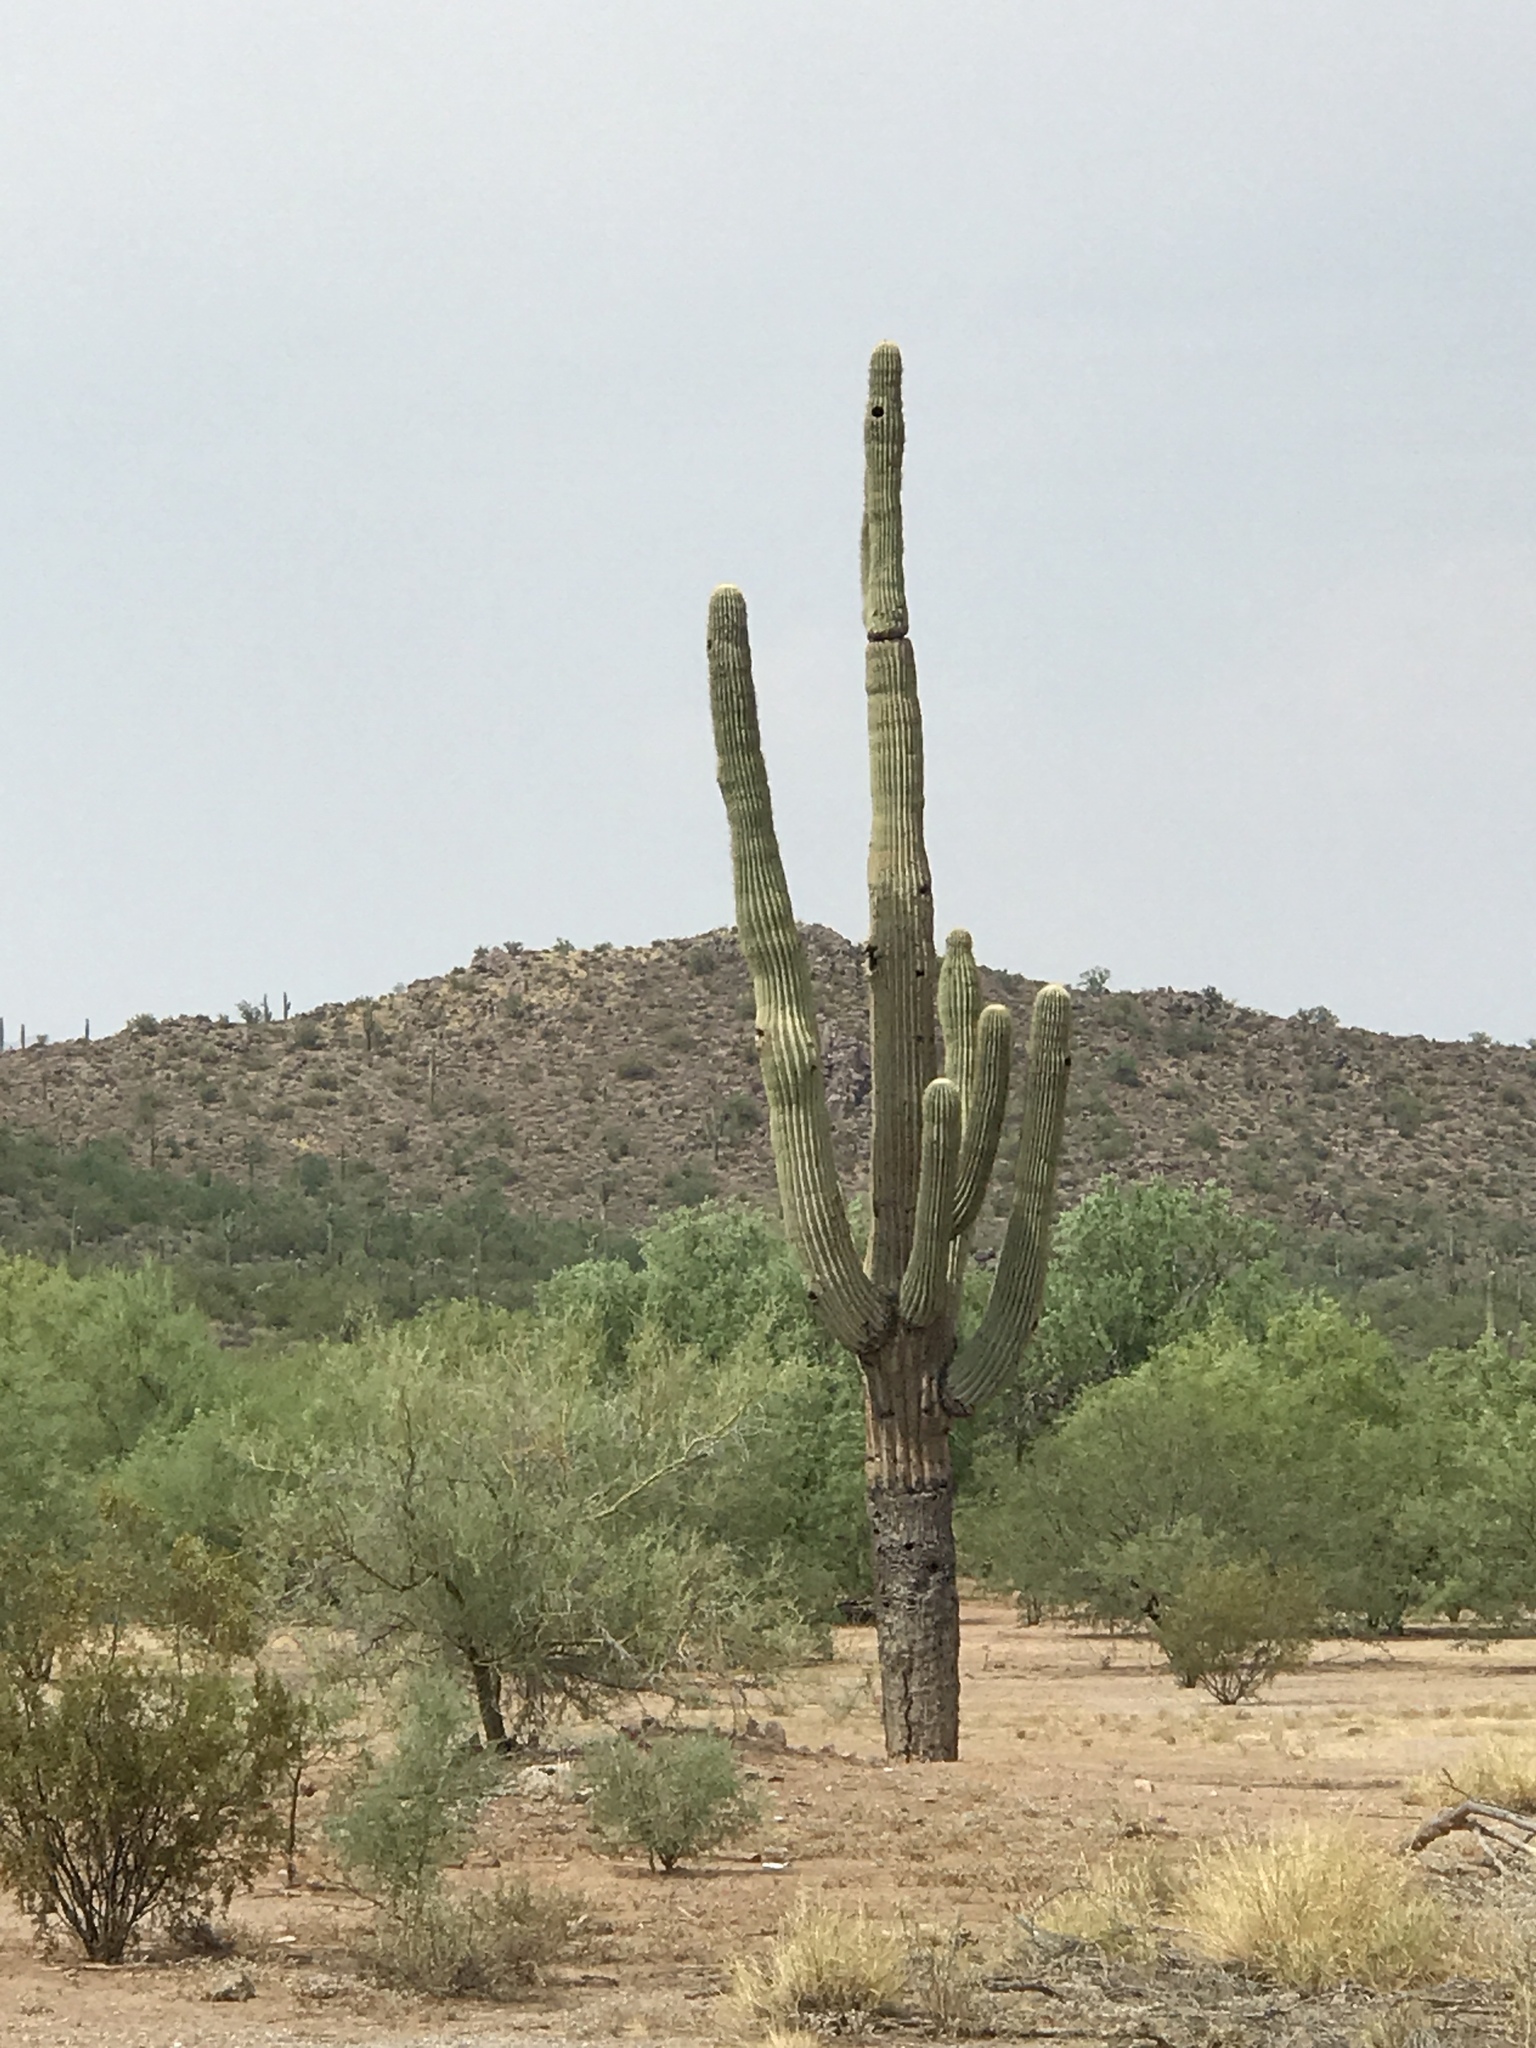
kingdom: Plantae
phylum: Tracheophyta
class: Magnoliopsida
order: Caryophyllales
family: Cactaceae
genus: Carnegiea
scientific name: Carnegiea gigantea
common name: Saguaro
